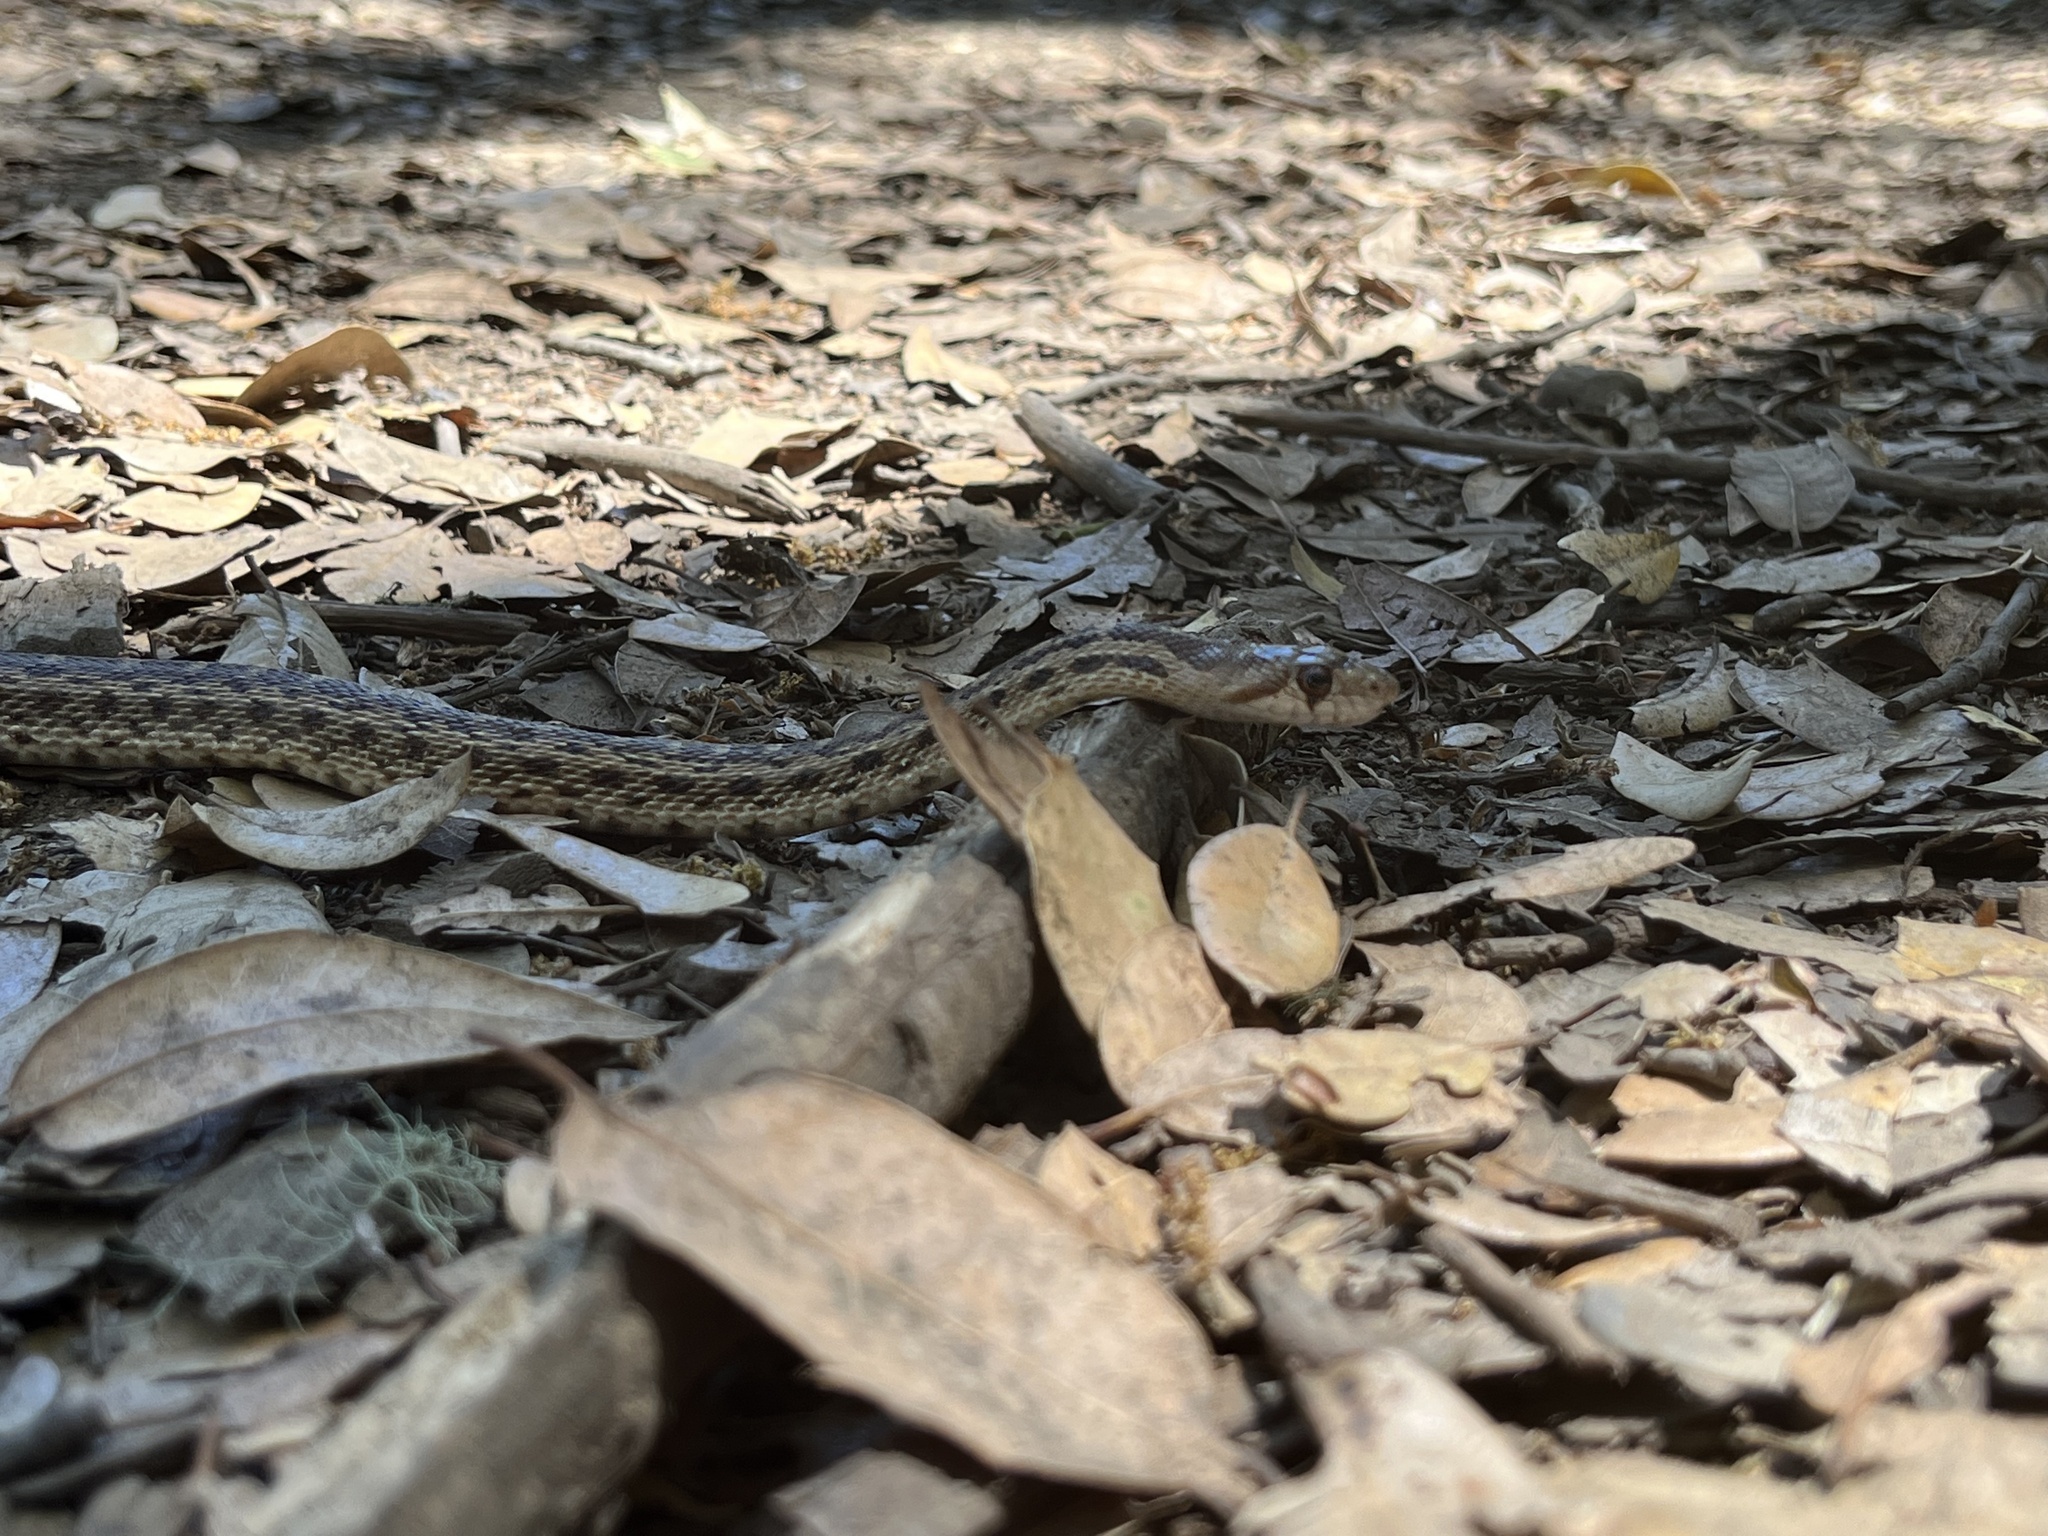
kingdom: Animalia
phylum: Chordata
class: Squamata
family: Colubridae
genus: Pituophis
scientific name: Pituophis catenifer
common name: Gopher snake
